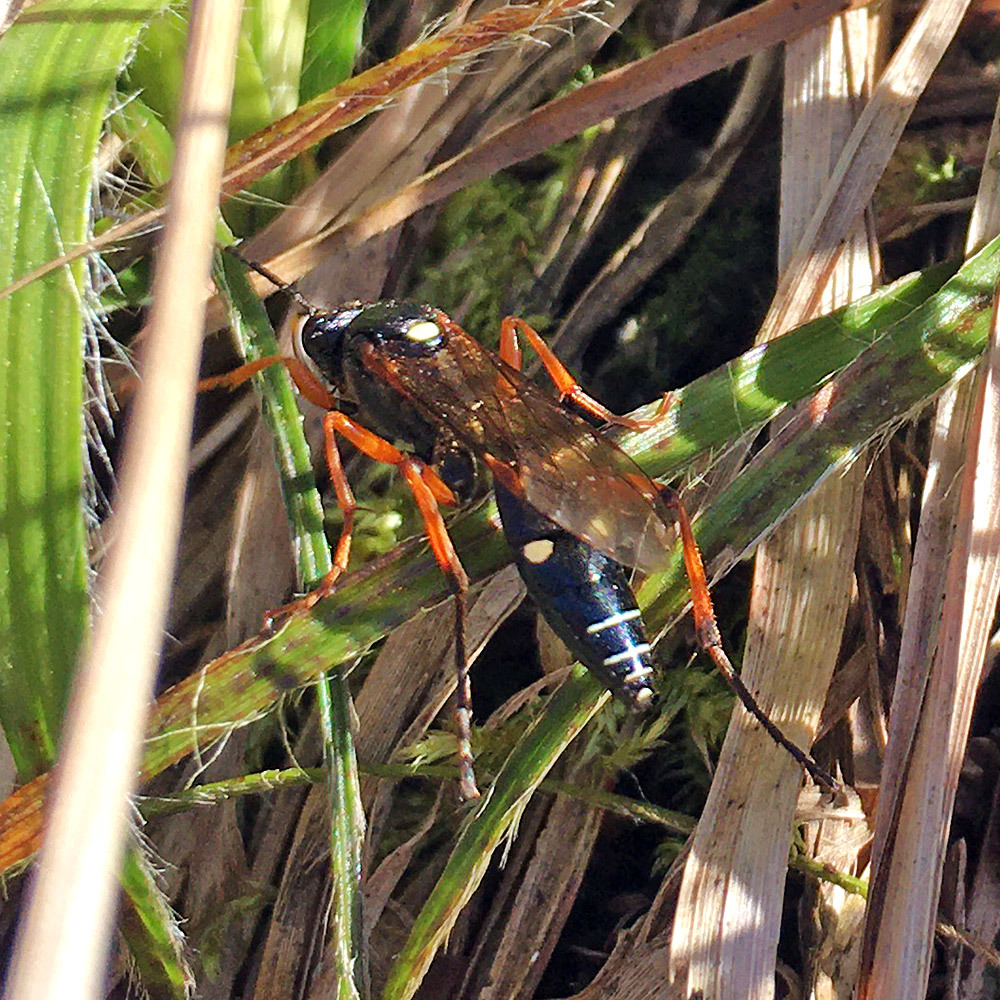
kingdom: Animalia
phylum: Arthropoda
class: Insecta
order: Hymenoptera
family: Ichneumonidae
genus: Diphyus
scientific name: Diphyus quadripunctorius
